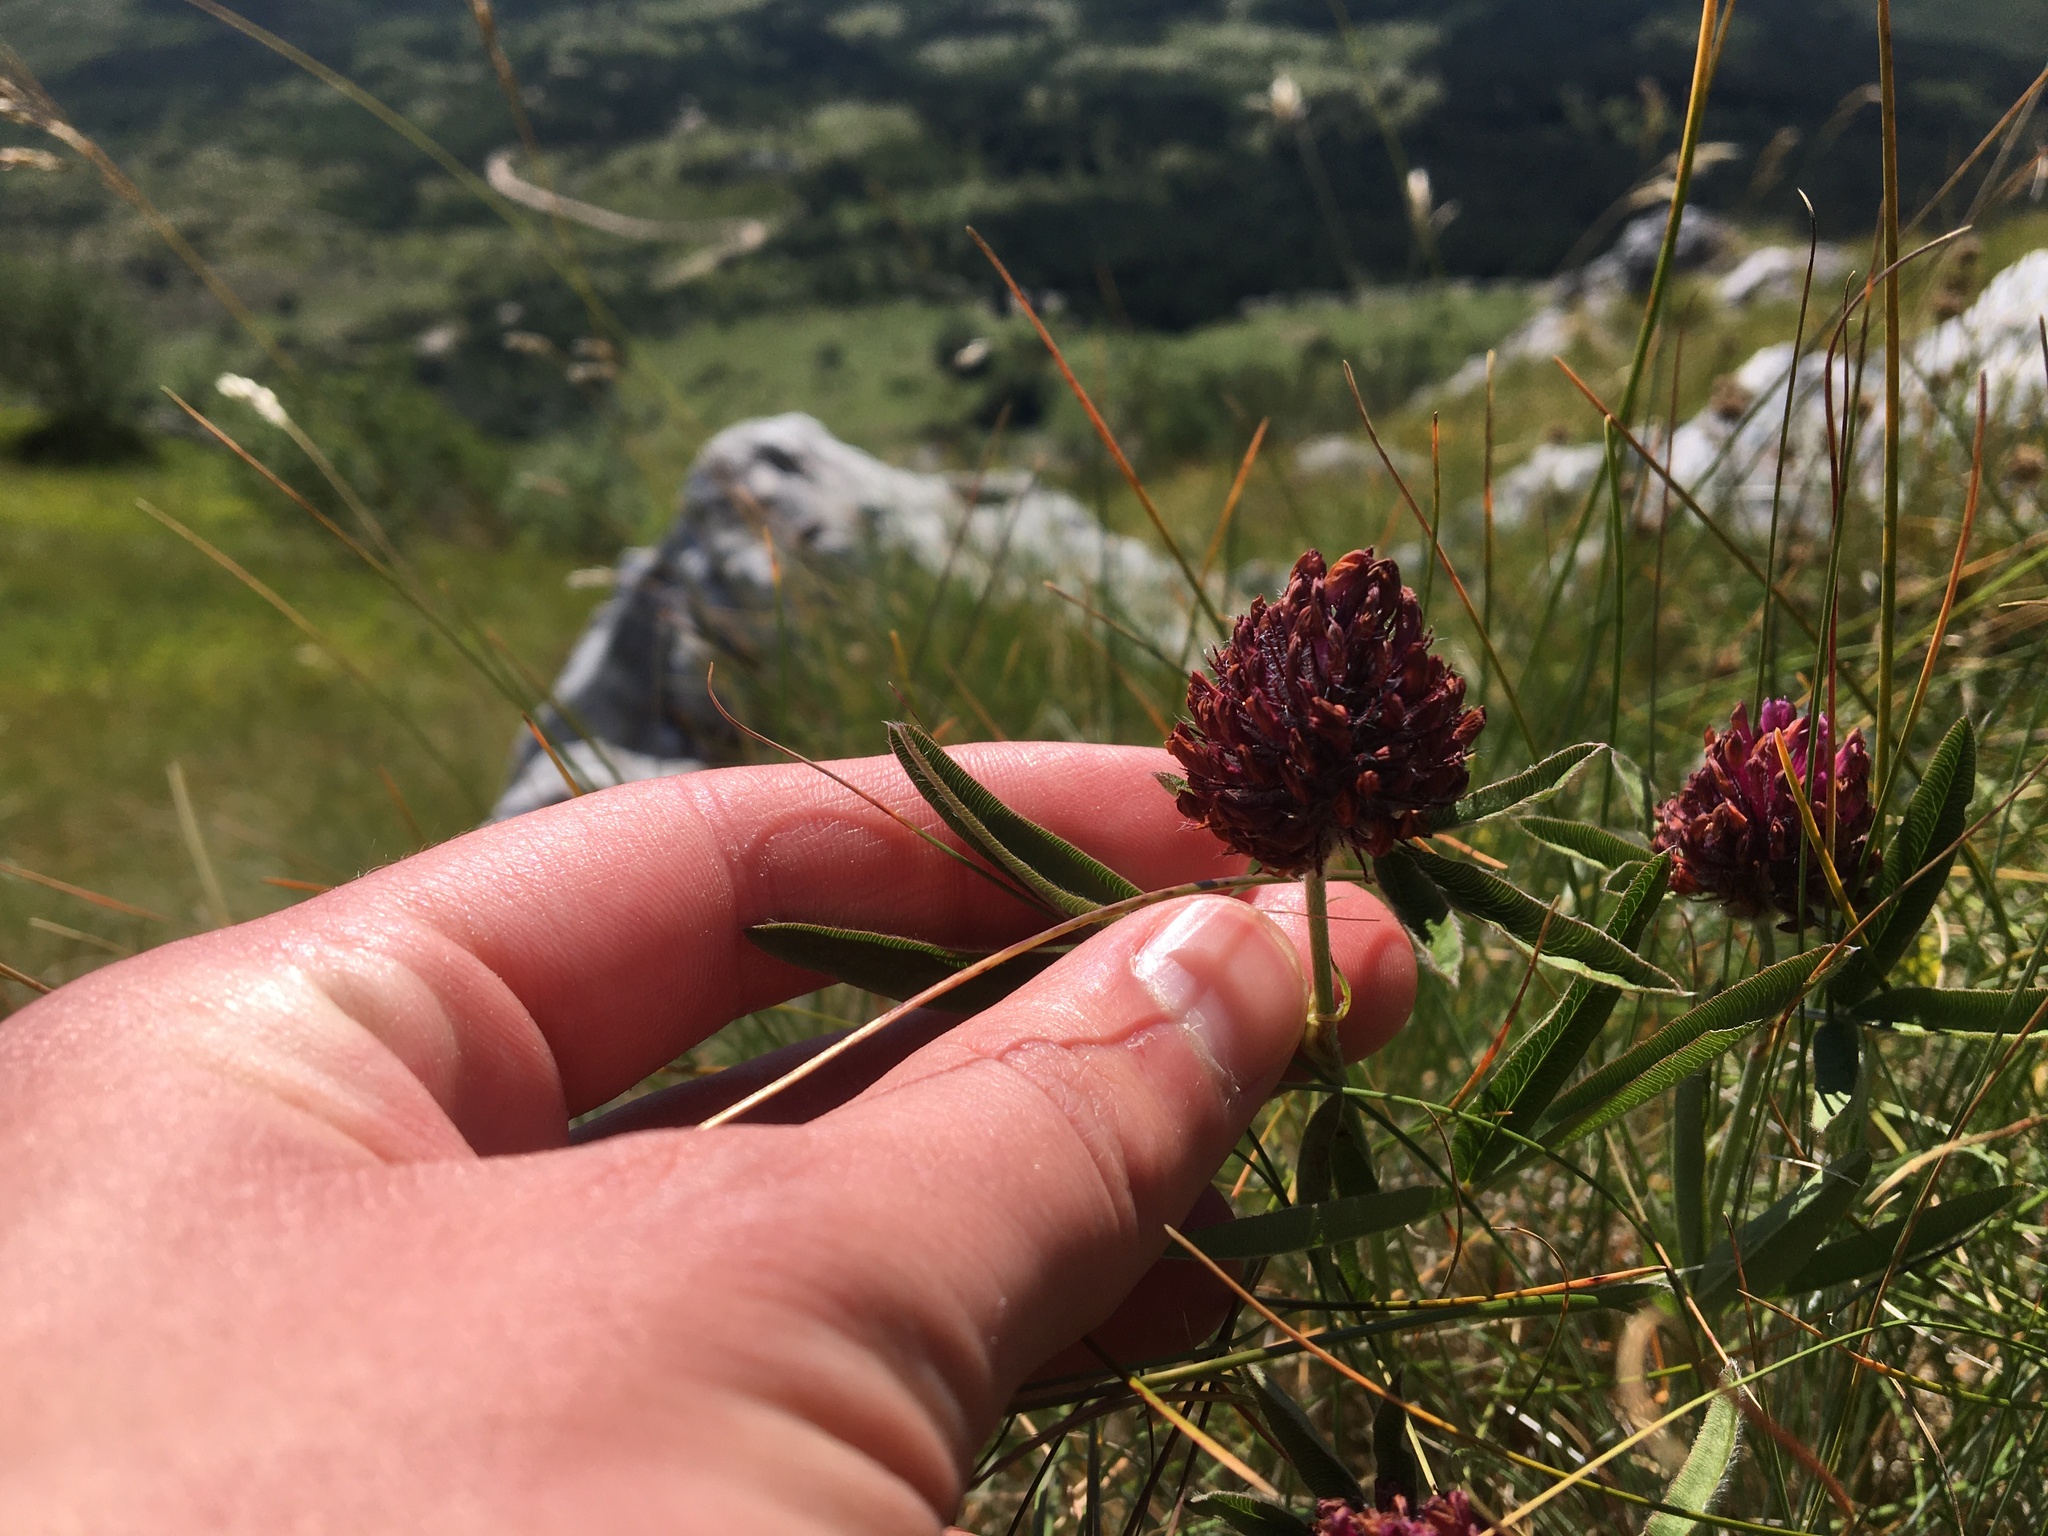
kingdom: Plantae
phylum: Tracheophyta
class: Magnoliopsida
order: Fabales
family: Fabaceae
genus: Trifolium
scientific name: Trifolium alpestre
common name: Owl-head clover
